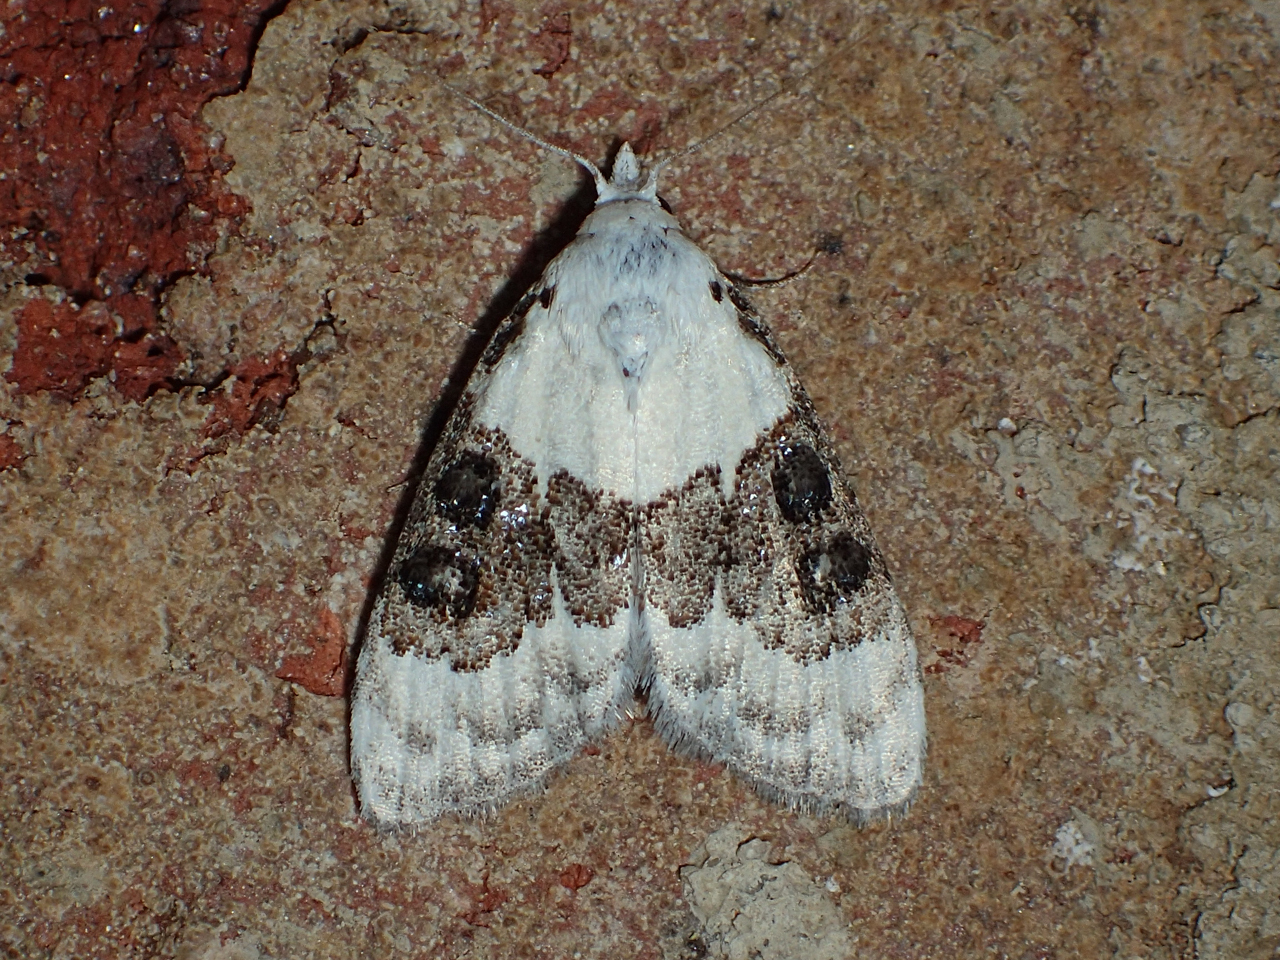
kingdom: Animalia
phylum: Arthropoda
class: Insecta
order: Lepidoptera
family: Nolidae
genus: Nola
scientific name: Nola pustulata
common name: Sharp-blotched nola moth
